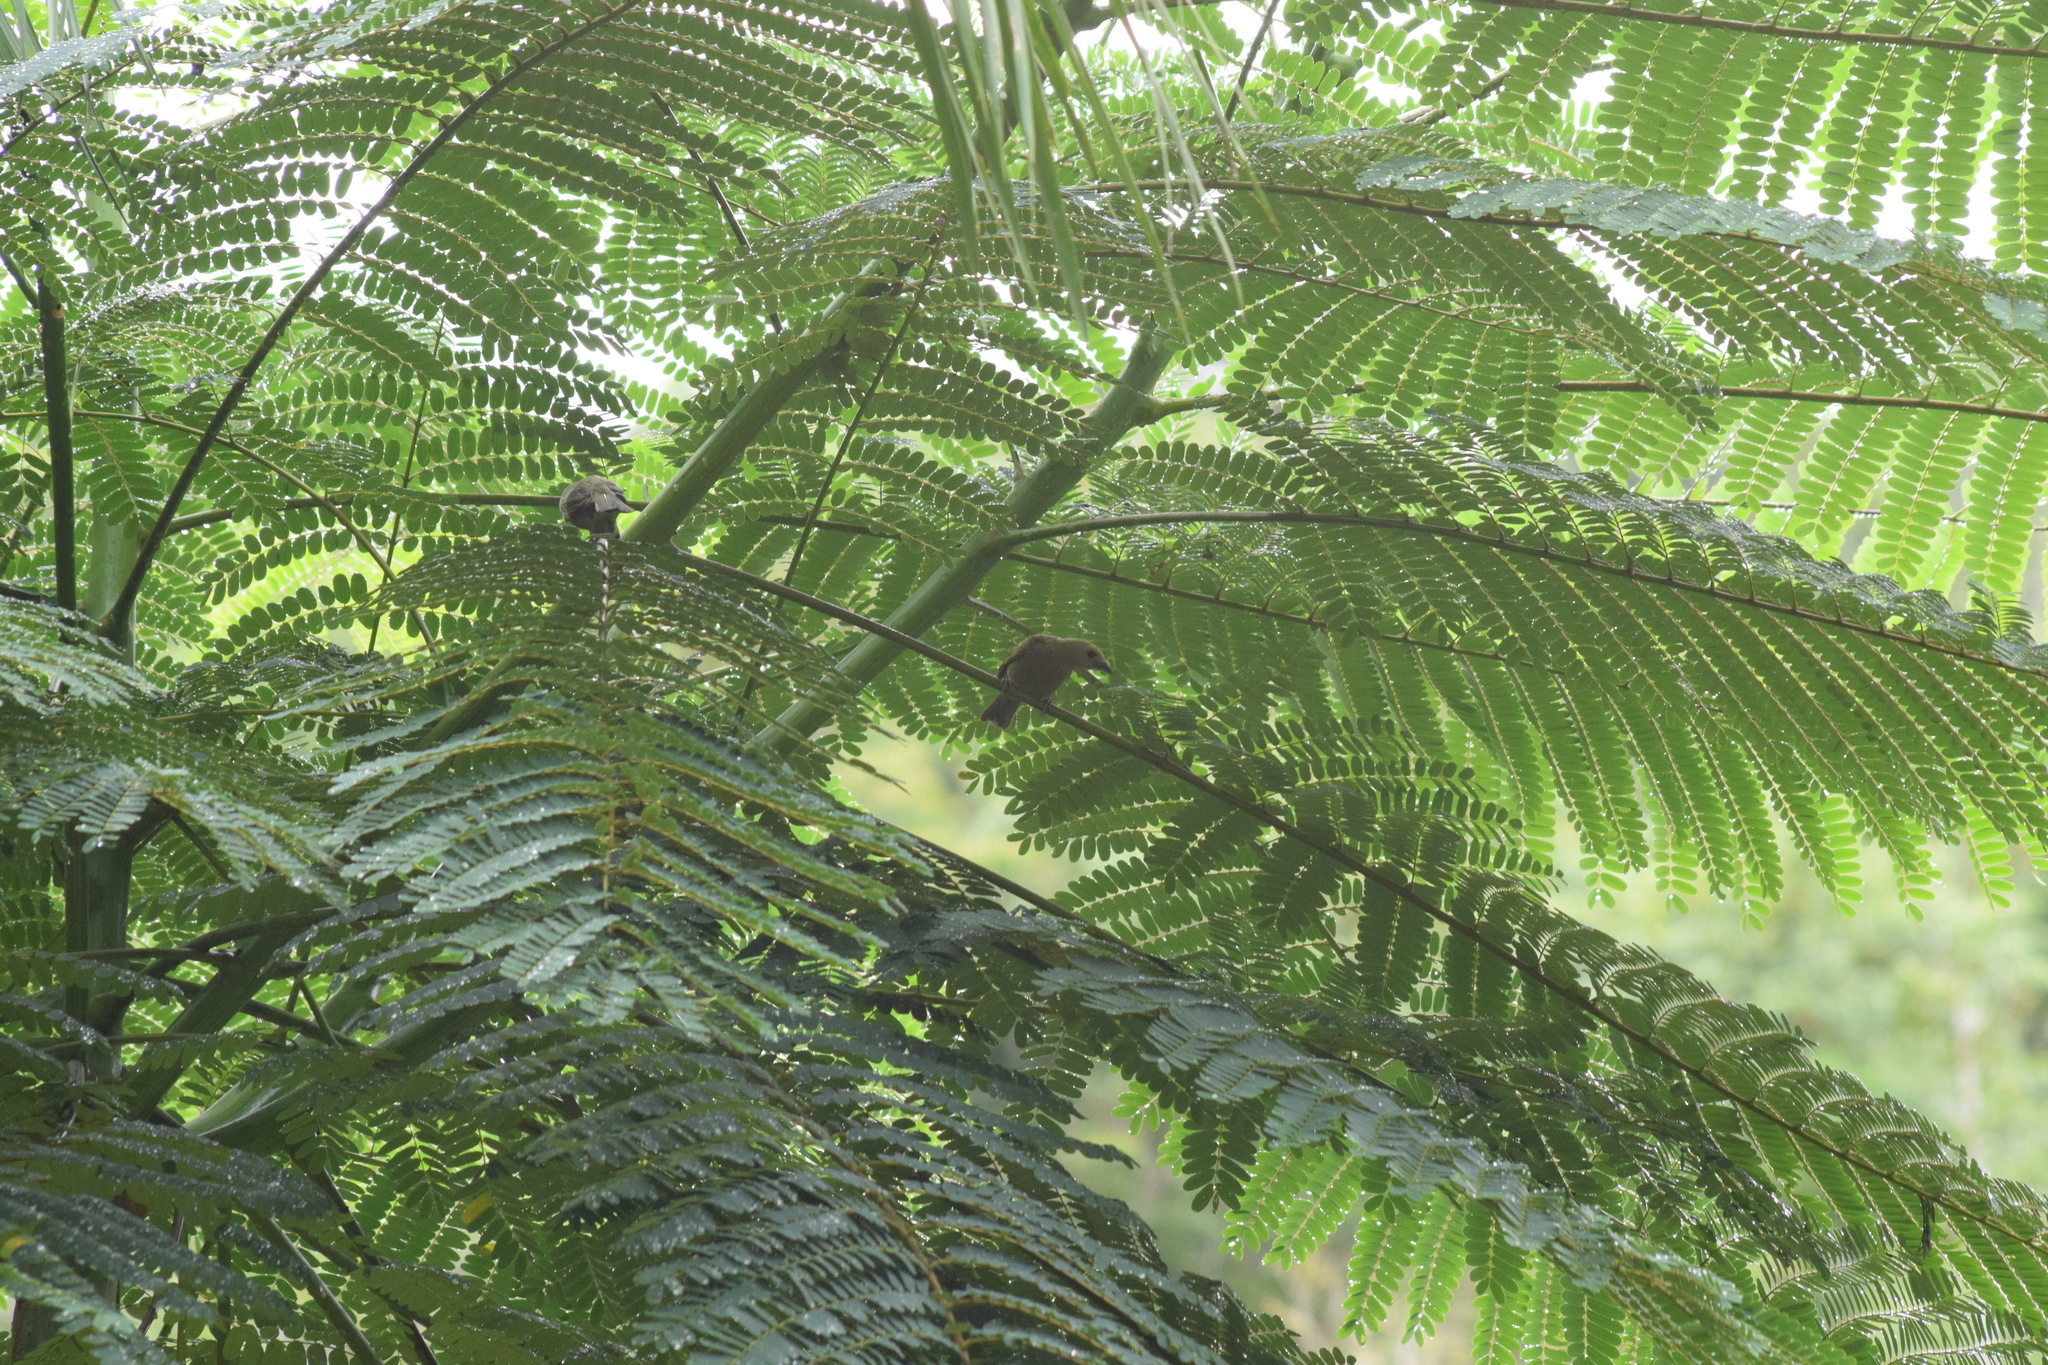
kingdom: Animalia
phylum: Chordata
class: Aves
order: Passeriformes
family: Thraupidae
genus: Thraupis
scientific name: Thraupis palmarum
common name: Palm tanager
